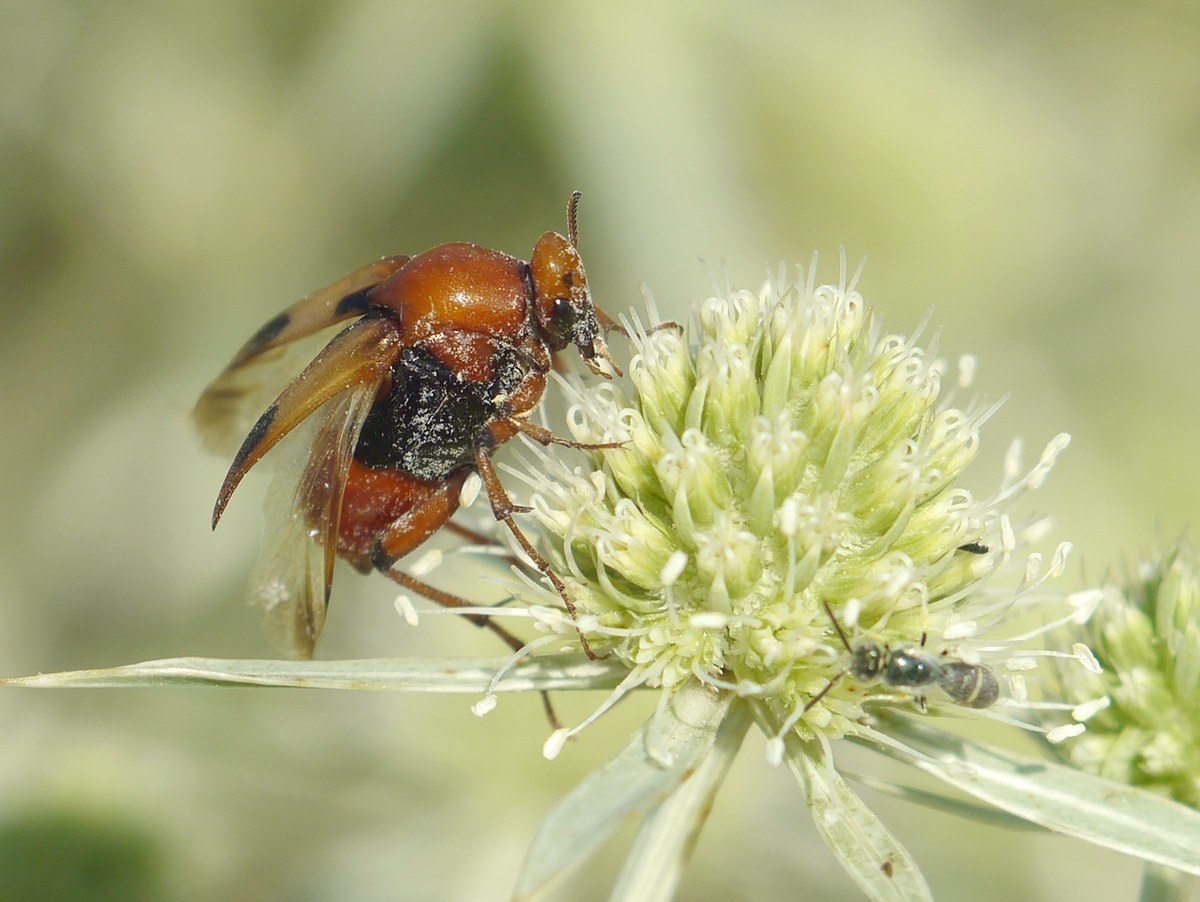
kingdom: Animalia
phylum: Arthropoda
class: Insecta
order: Coleoptera
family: Ripiphoridae
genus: Macrosiagon
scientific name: Macrosiagon bimaculata
